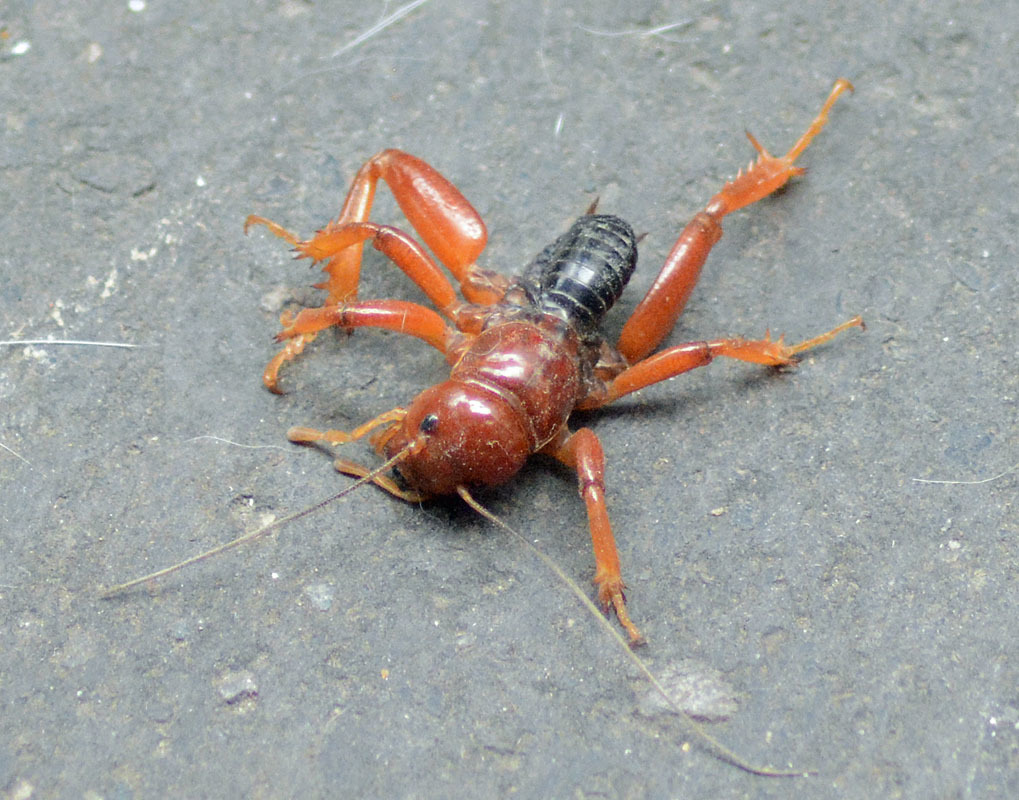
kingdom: Animalia
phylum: Arthropoda
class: Insecta
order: Orthoptera
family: Stenopelmatidae
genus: Stenopelmatus
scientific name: Stenopelmatus talpa
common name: Mole jerusalem cricket
